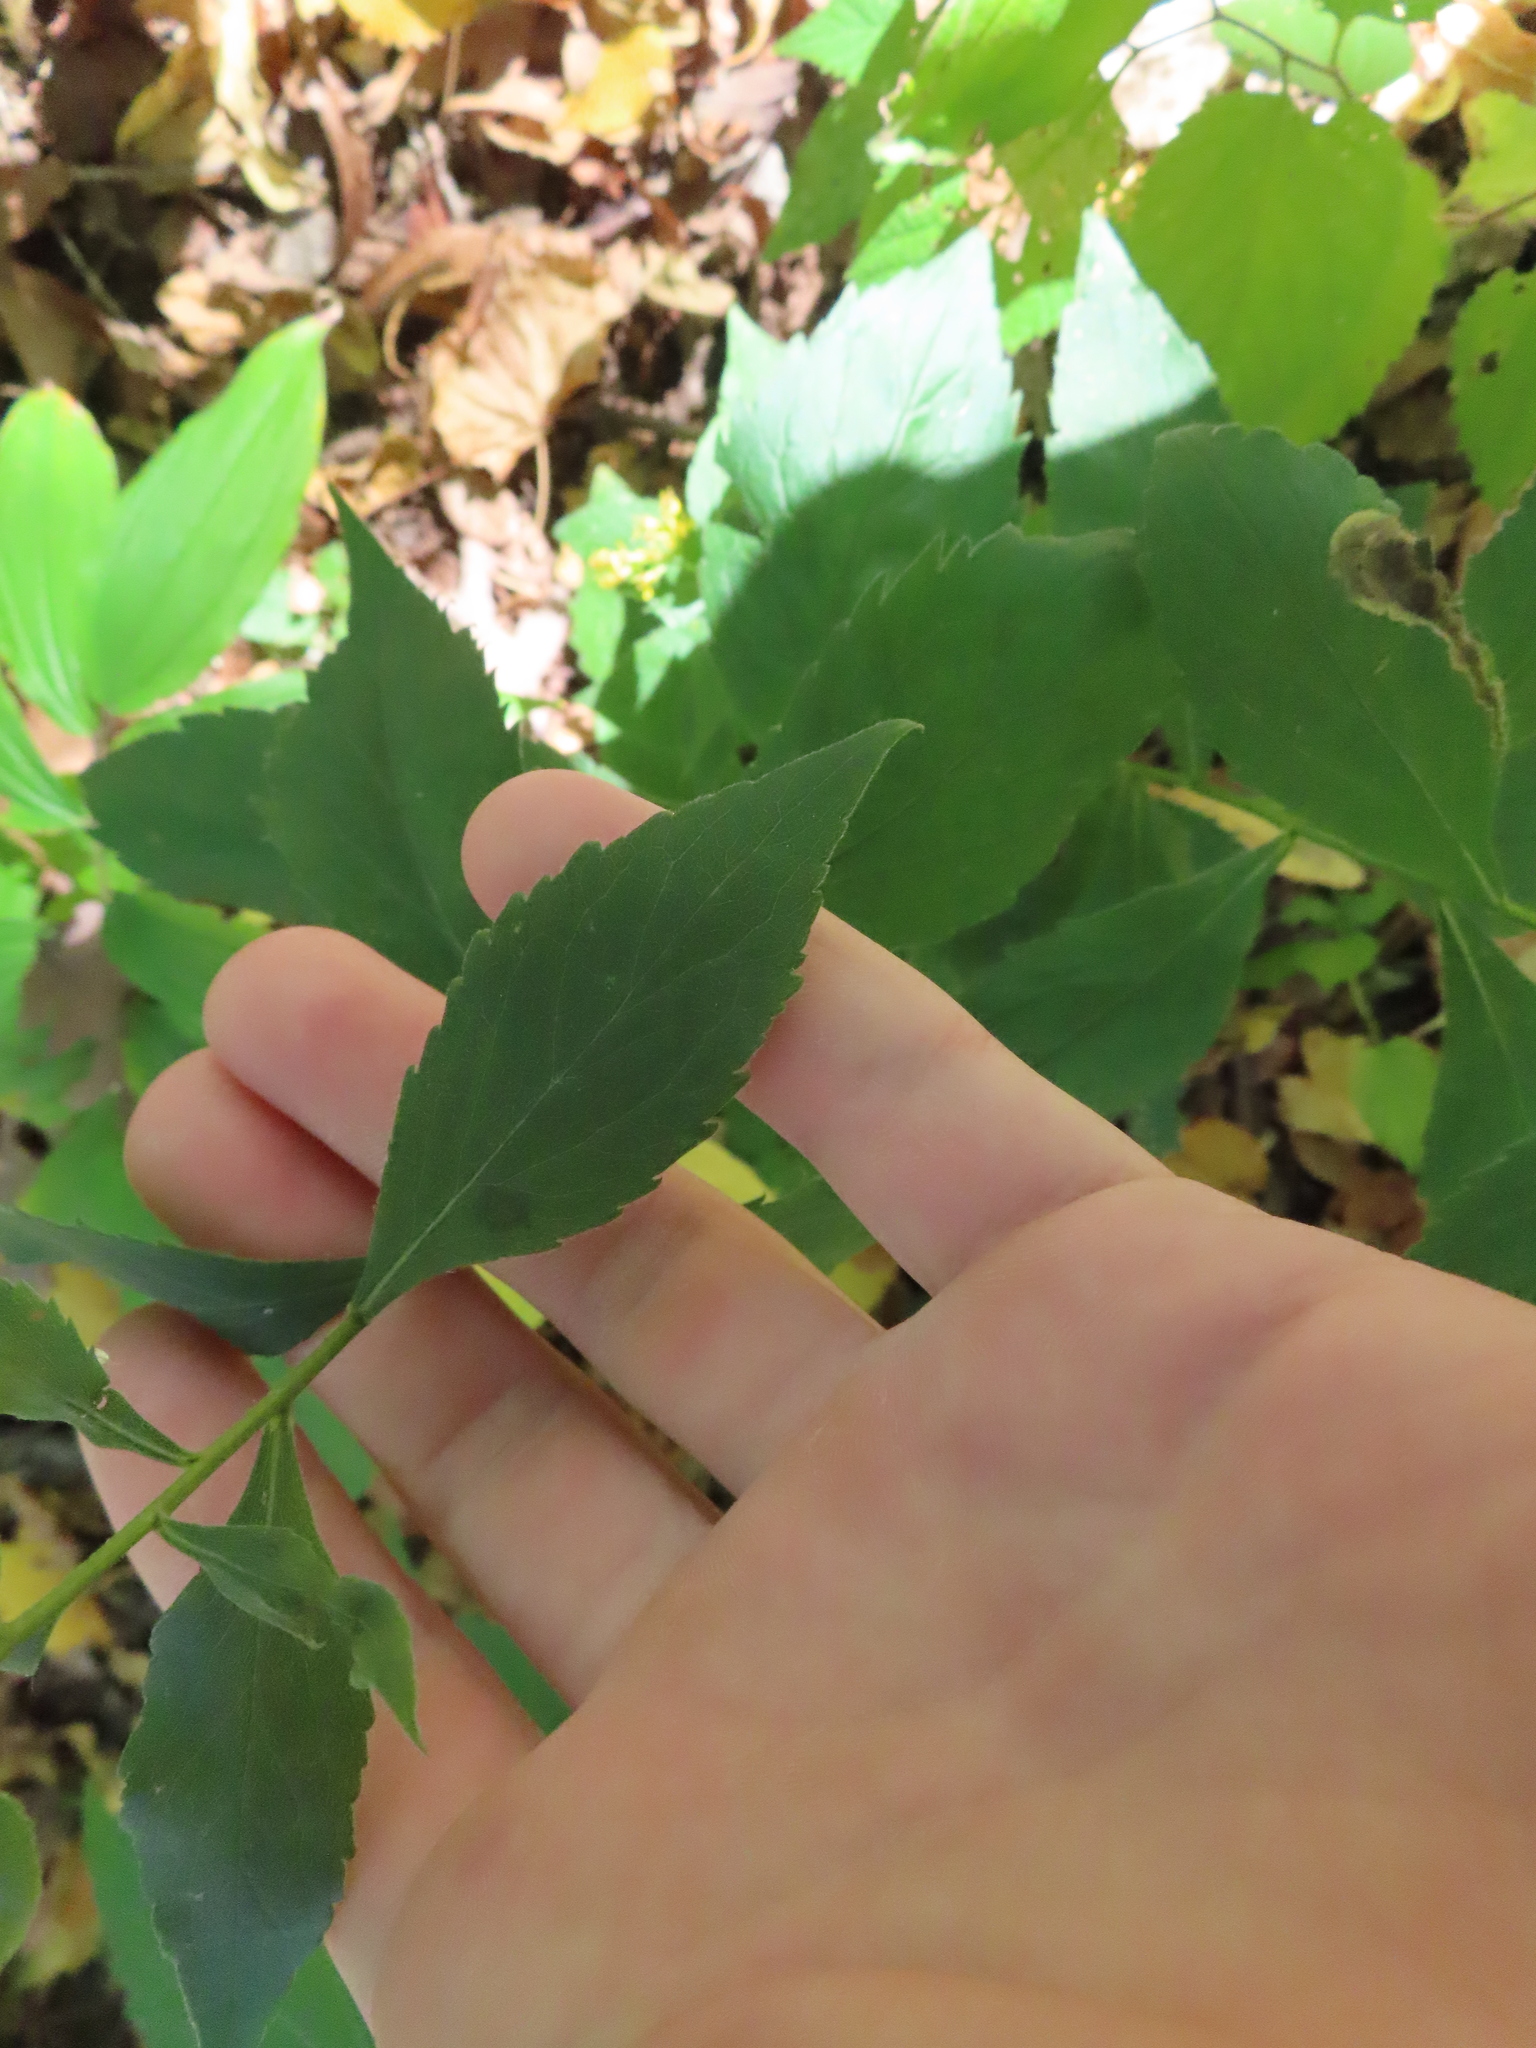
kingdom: Plantae
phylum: Tracheophyta
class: Magnoliopsida
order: Asterales
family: Asteraceae
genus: Solidago
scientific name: Solidago ulmifolia
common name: Elm-leaf goldenrod
